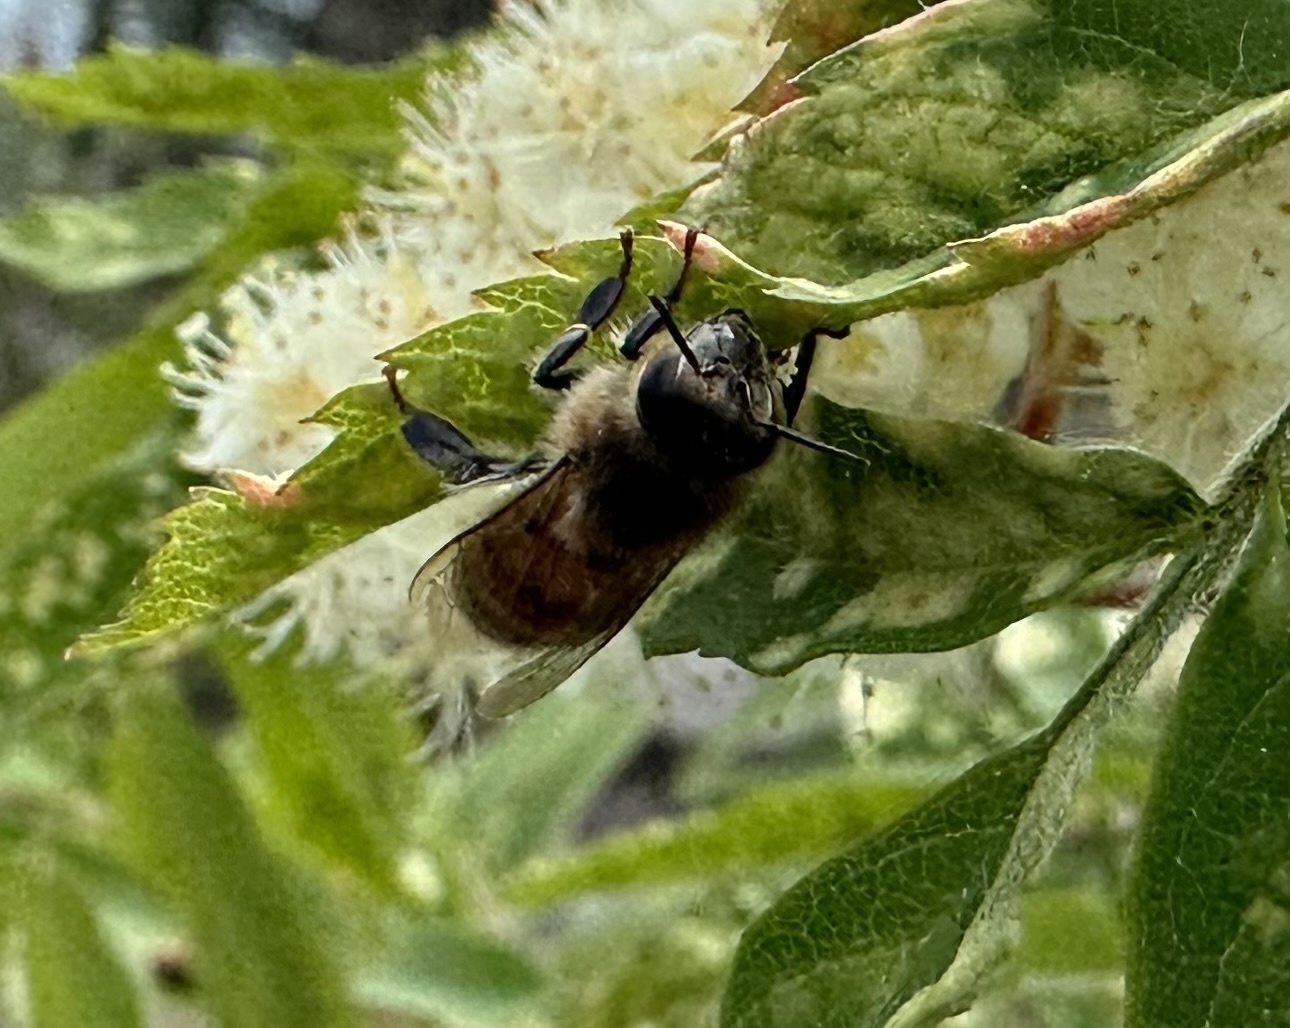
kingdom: Animalia
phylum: Arthropoda
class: Insecta
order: Hymenoptera
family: Apidae
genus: Apis
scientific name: Apis mellifera
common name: Honey bee
